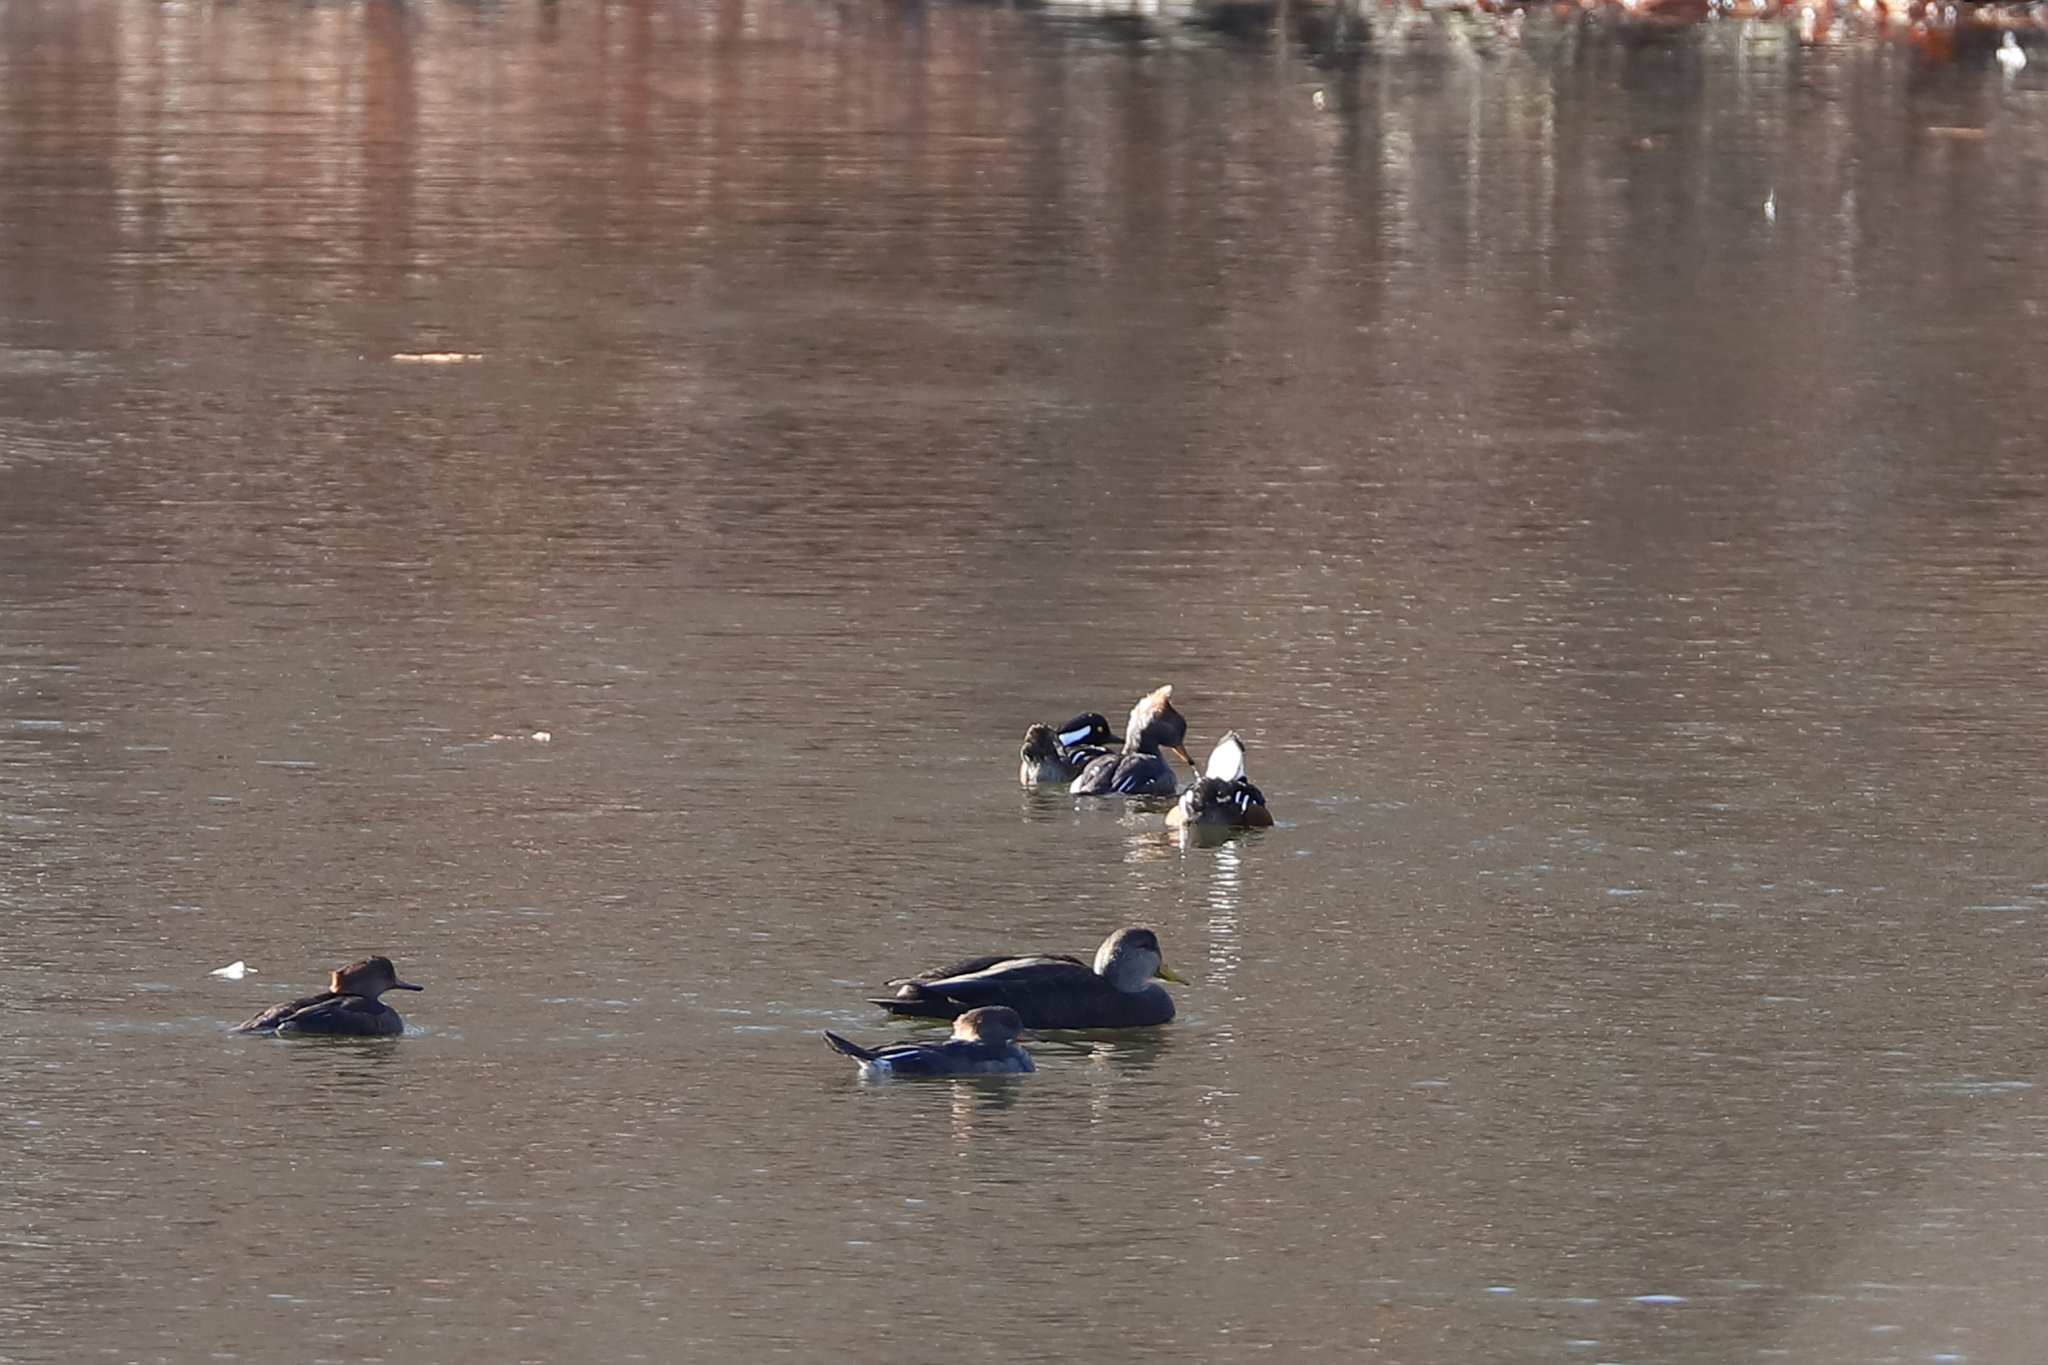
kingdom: Animalia
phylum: Chordata
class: Aves
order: Anseriformes
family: Anatidae
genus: Lophodytes
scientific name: Lophodytes cucullatus
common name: Hooded merganser
